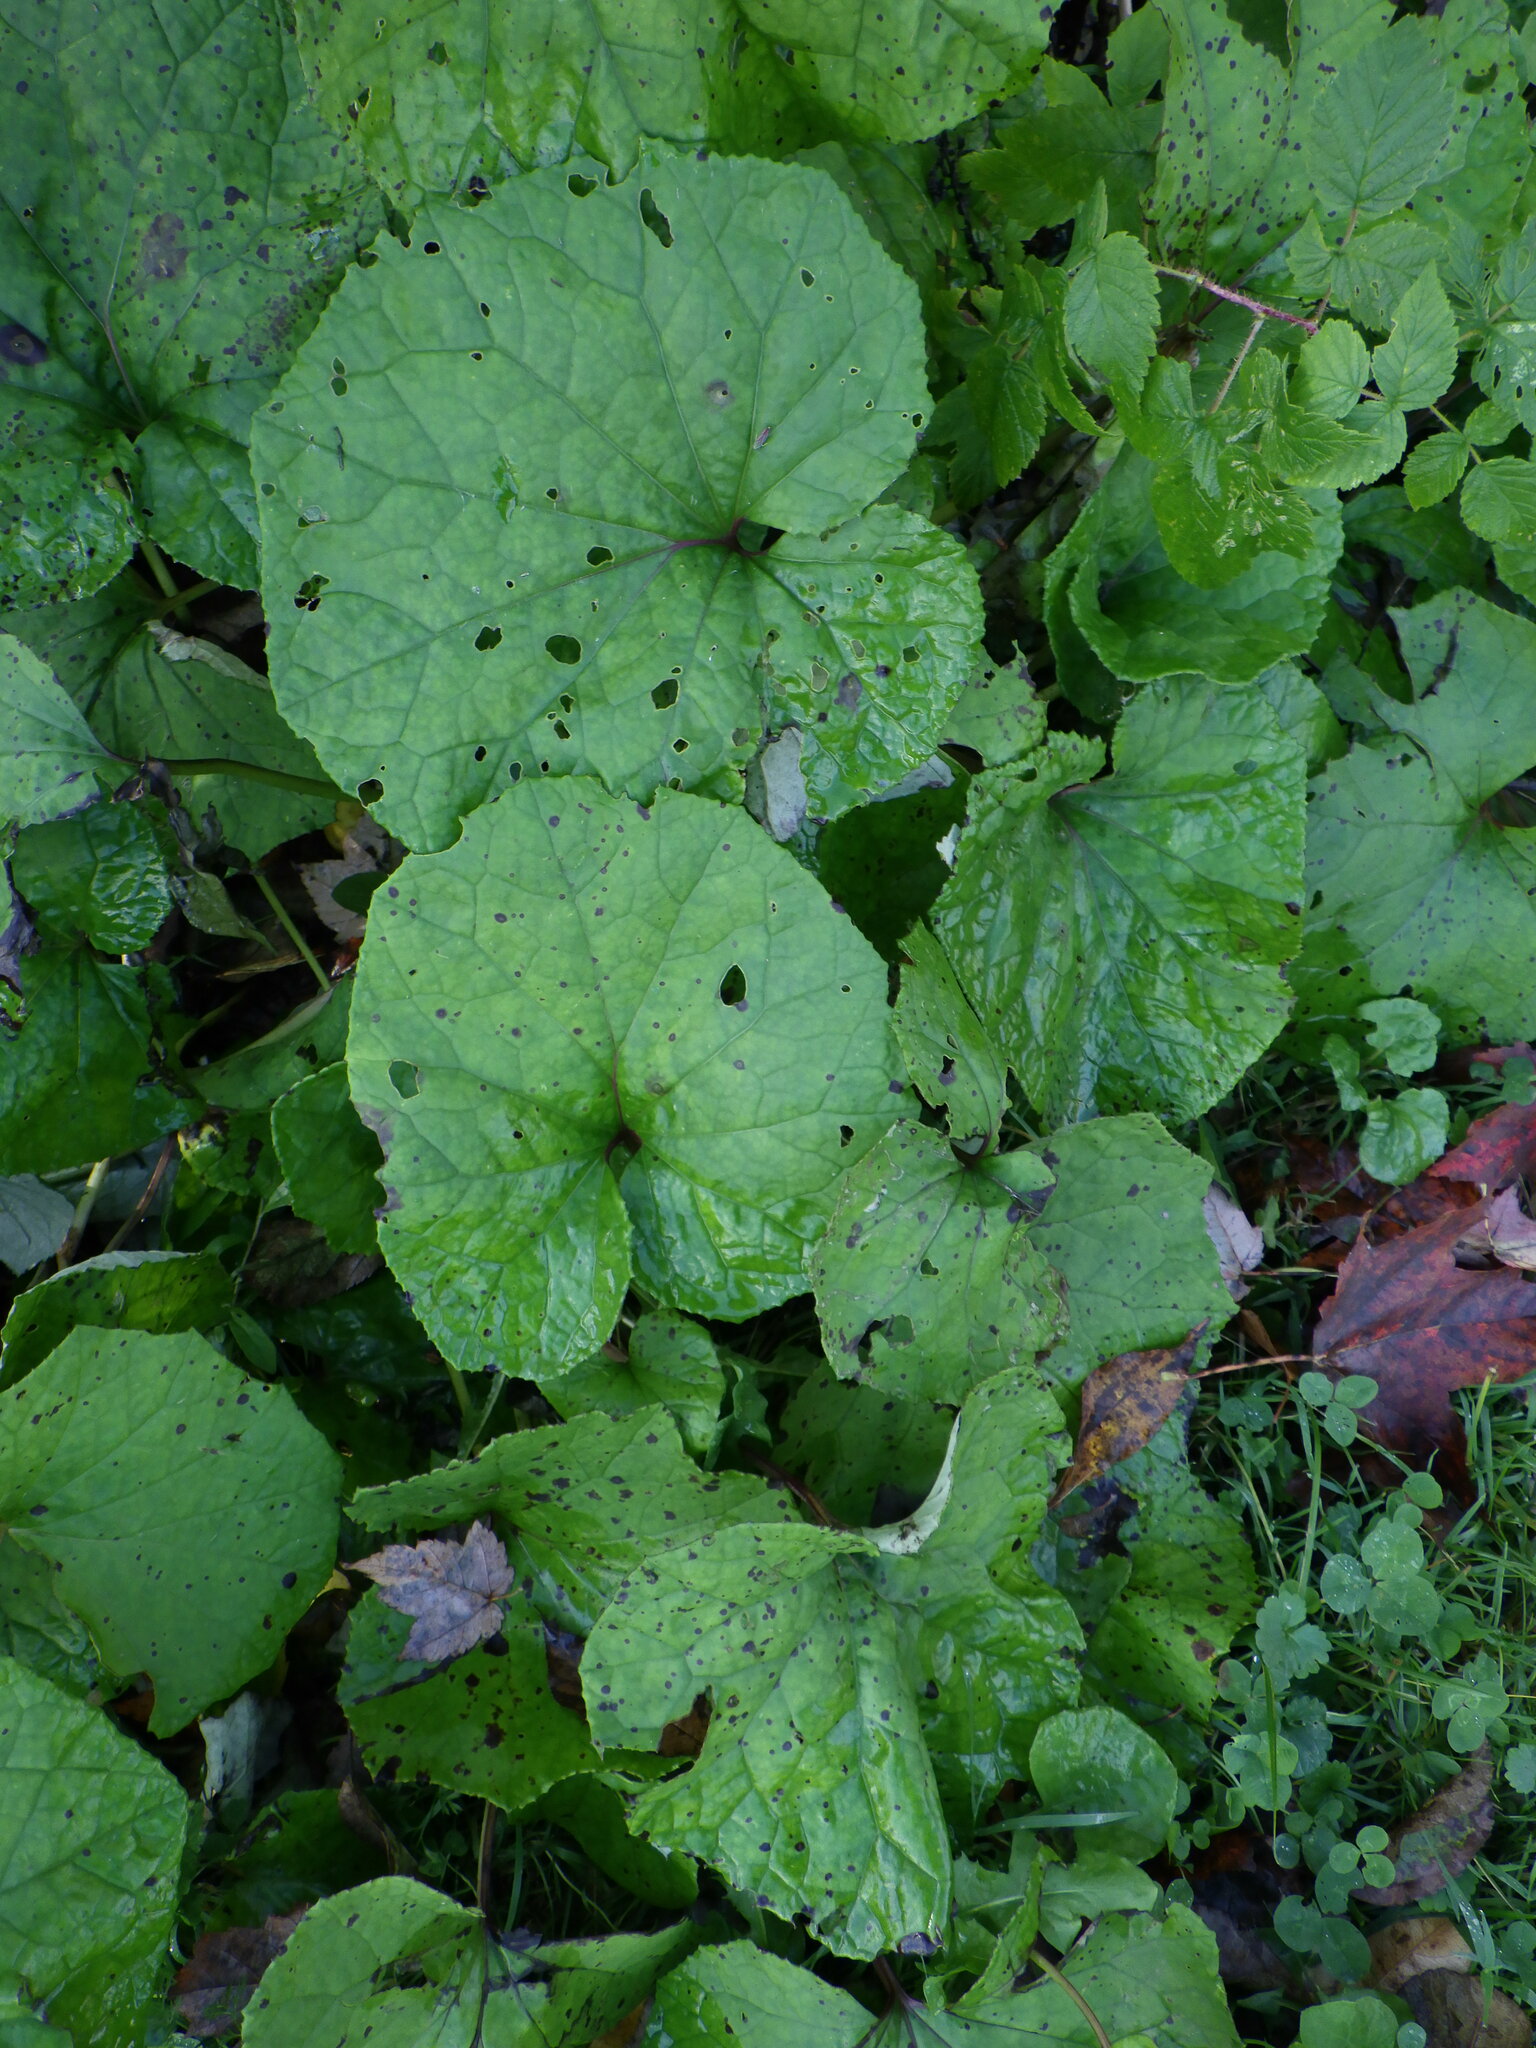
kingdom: Plantae
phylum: Tracheophyta
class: Magnoliopsida
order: Asterales
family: Asteraceae
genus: Tussilago
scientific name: Tussilago farfara
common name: Coltsfoot
